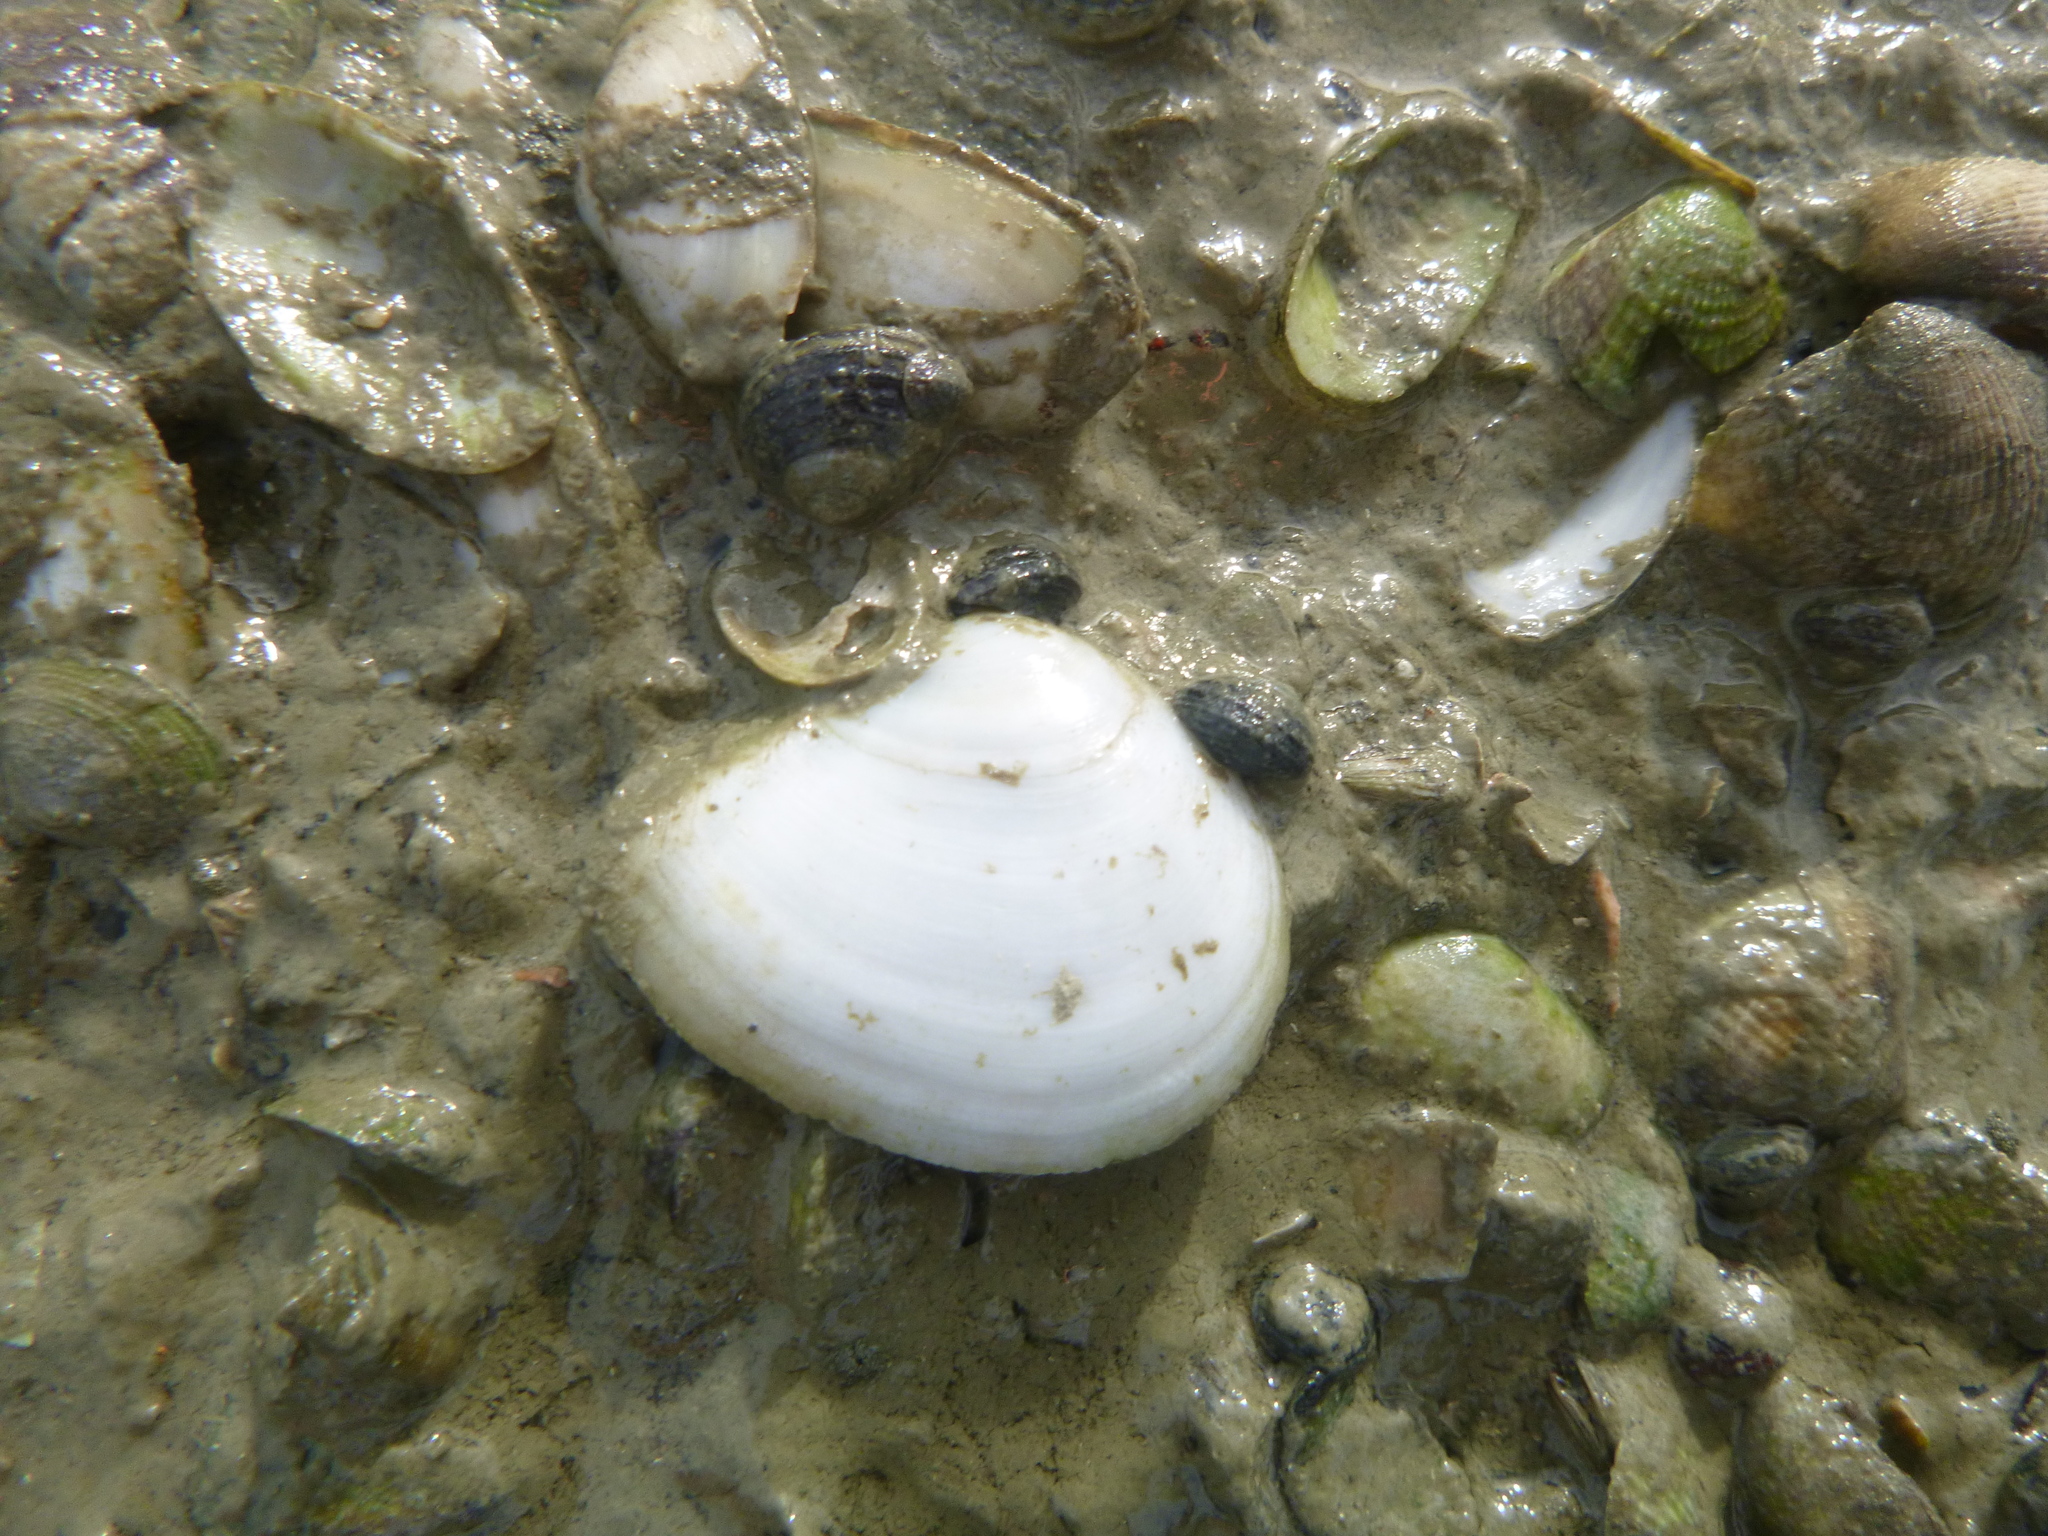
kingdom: Animalia
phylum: Mollusca
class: Bivalvia
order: Cardiida
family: Tellinidae
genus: Macomona
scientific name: Macomona liliana
